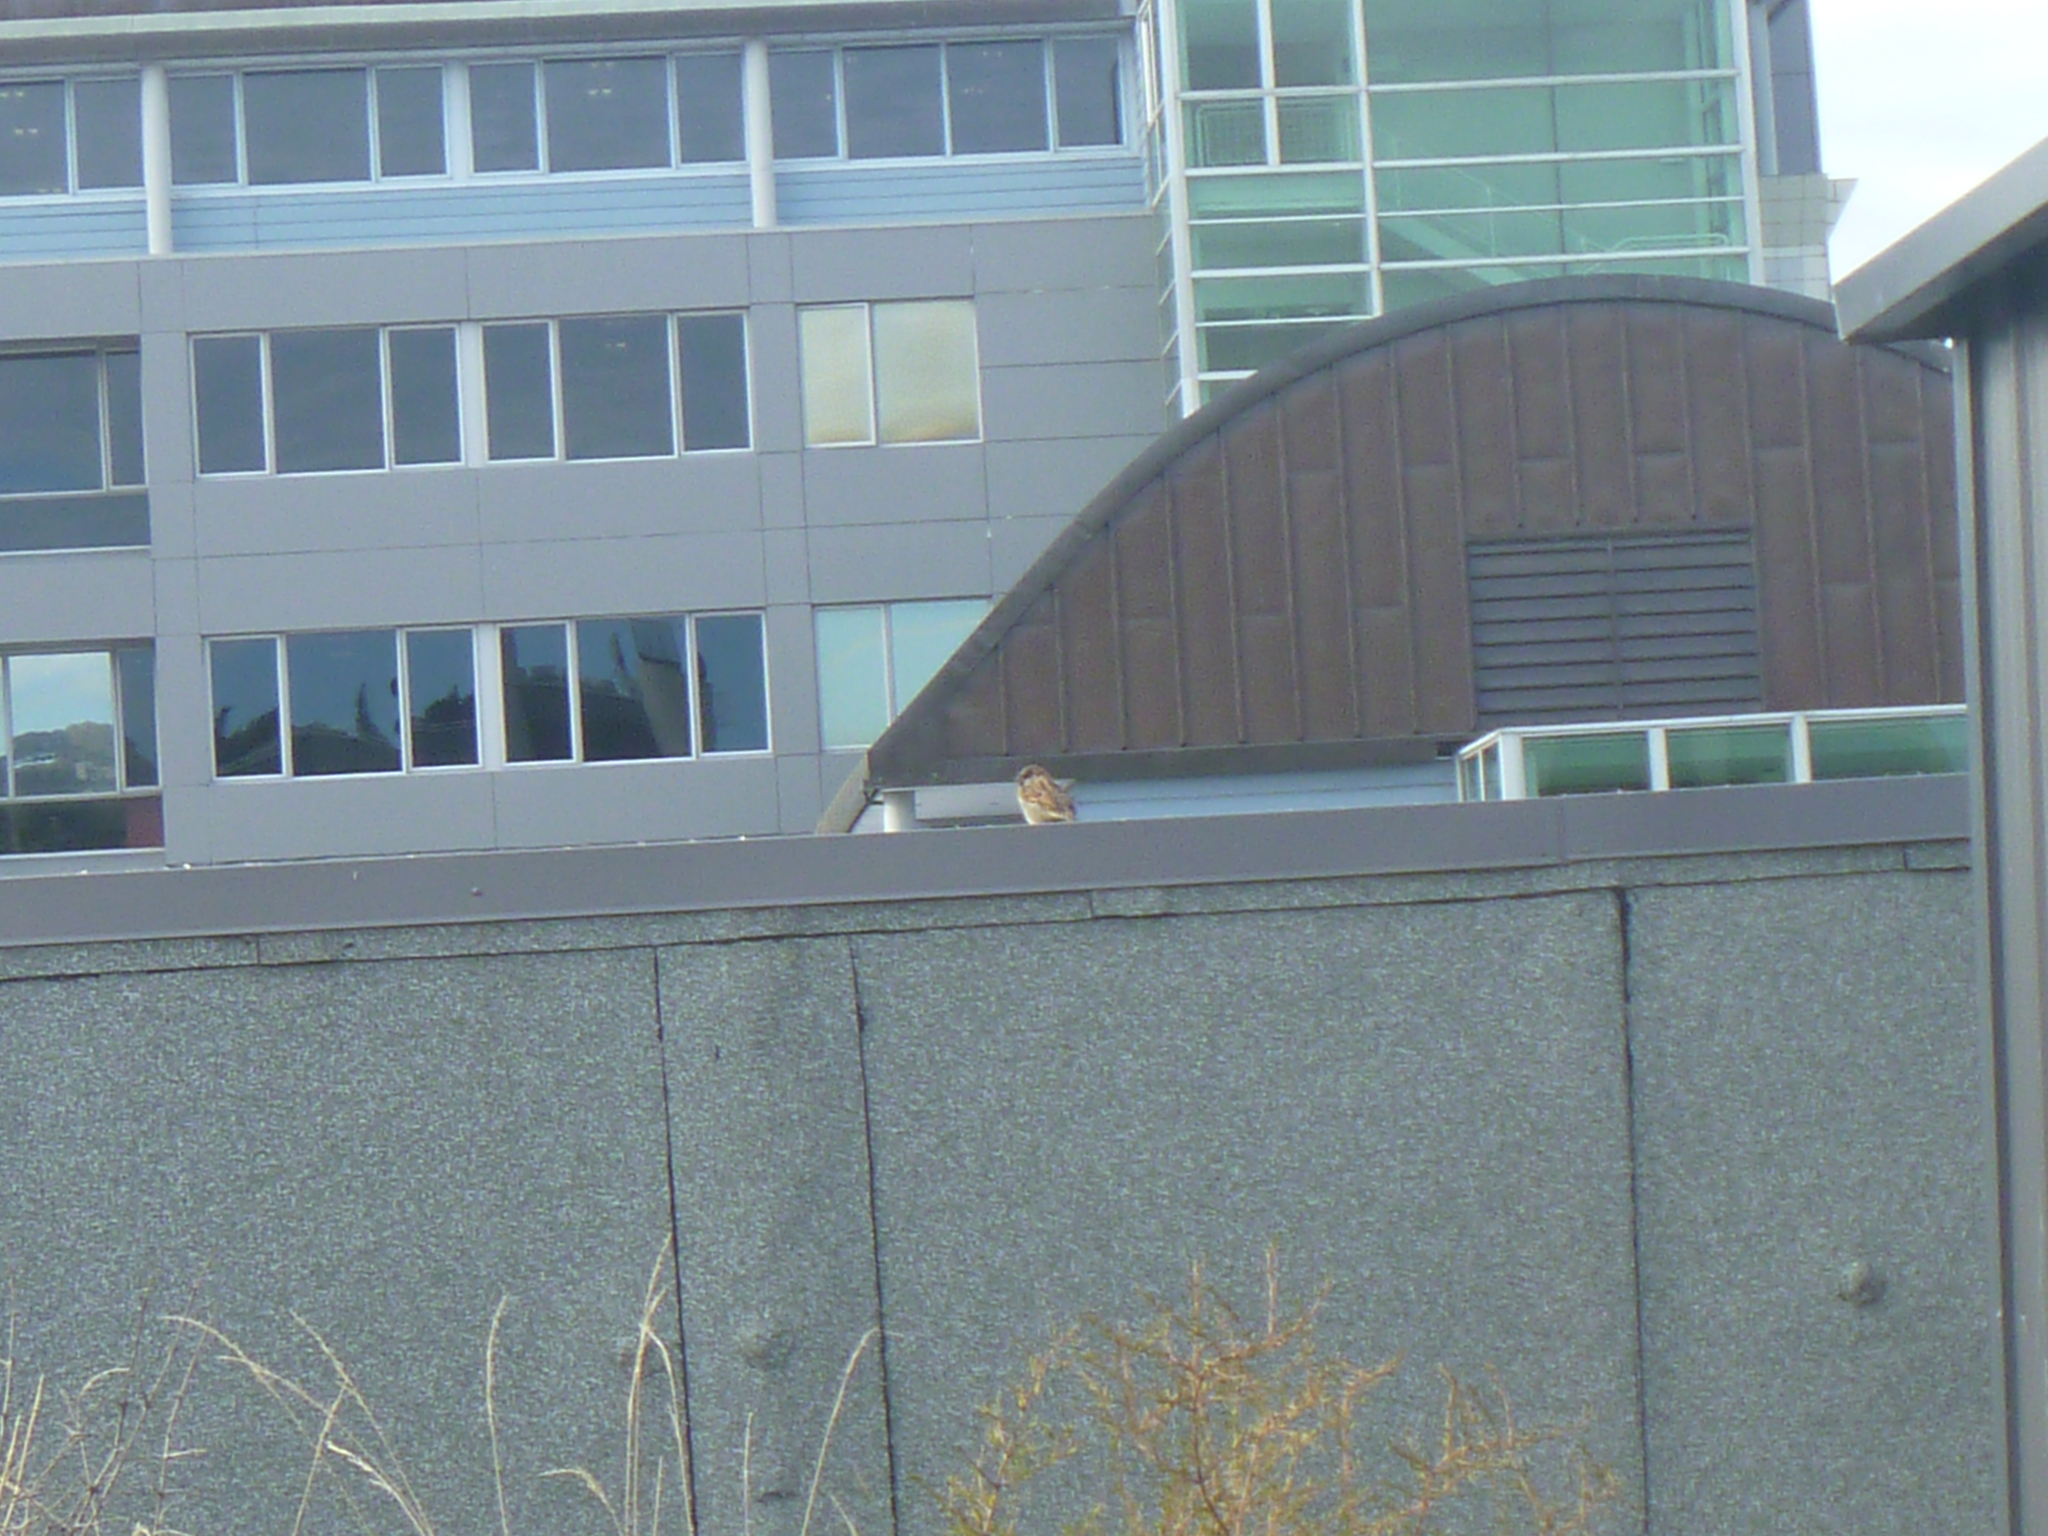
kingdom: Animalia
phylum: Chordata
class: Aves
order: Passeriformes
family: Passeridae
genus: Passer
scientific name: Passer domesticus
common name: House sparrow
